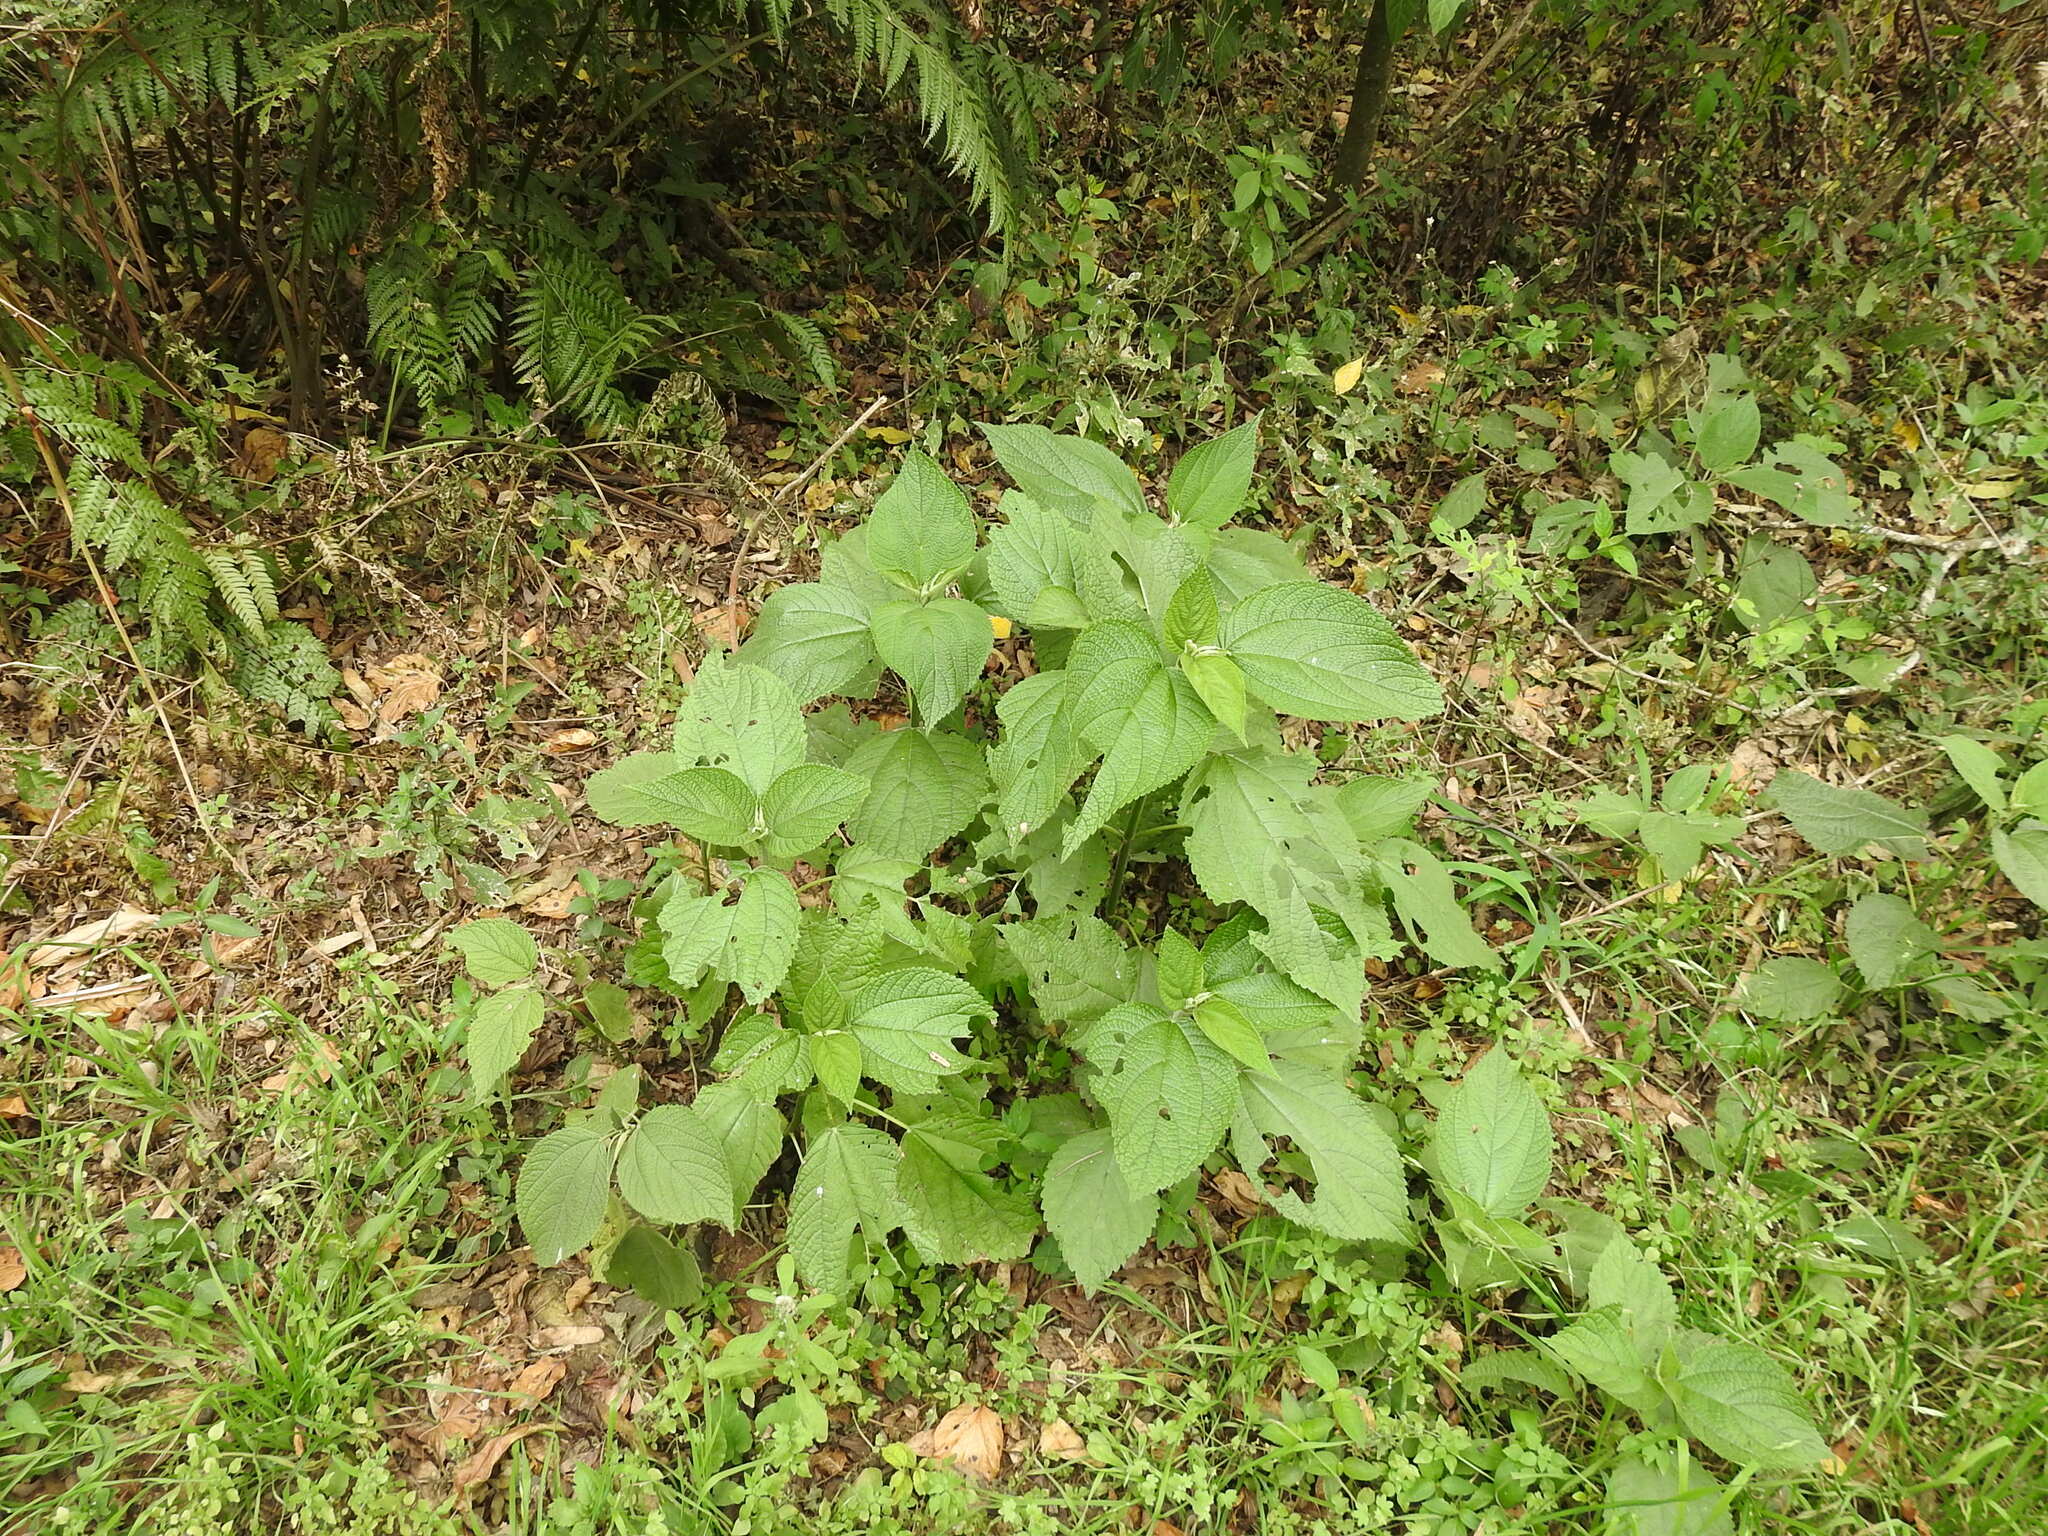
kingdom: Plantae
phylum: Tracheophyta
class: Magnoliopsida
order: Rosales
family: Urticaceae
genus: Urera
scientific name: Urera baccifera
